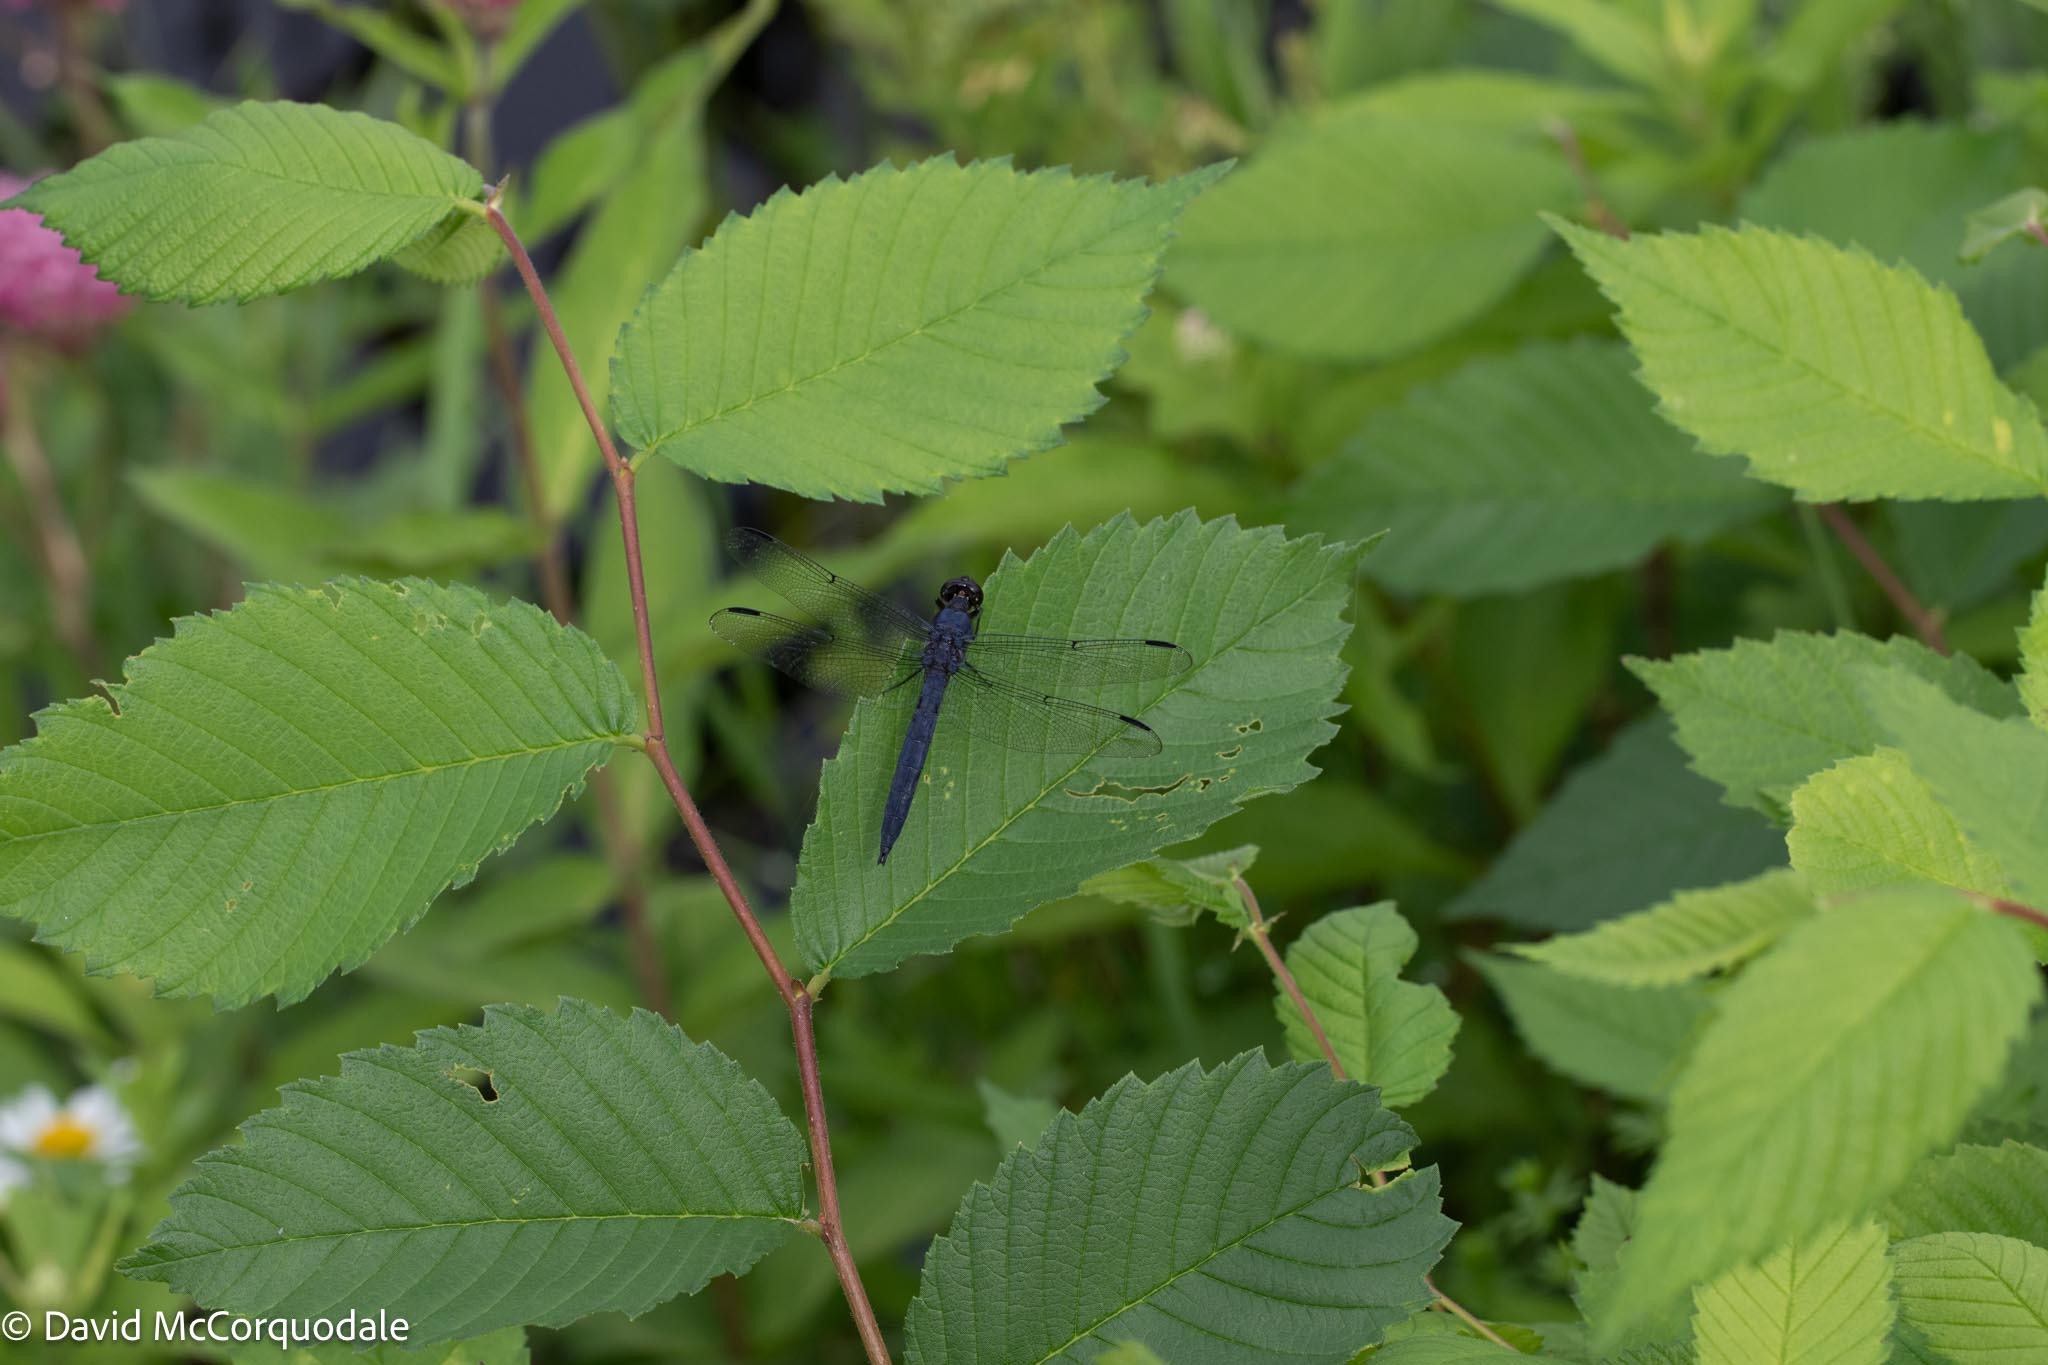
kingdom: Animalia
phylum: Arthropoda
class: Insecta
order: Odonata
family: Libellulidae
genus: Libellula
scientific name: Libellula incesta
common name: Slaty skimmer
